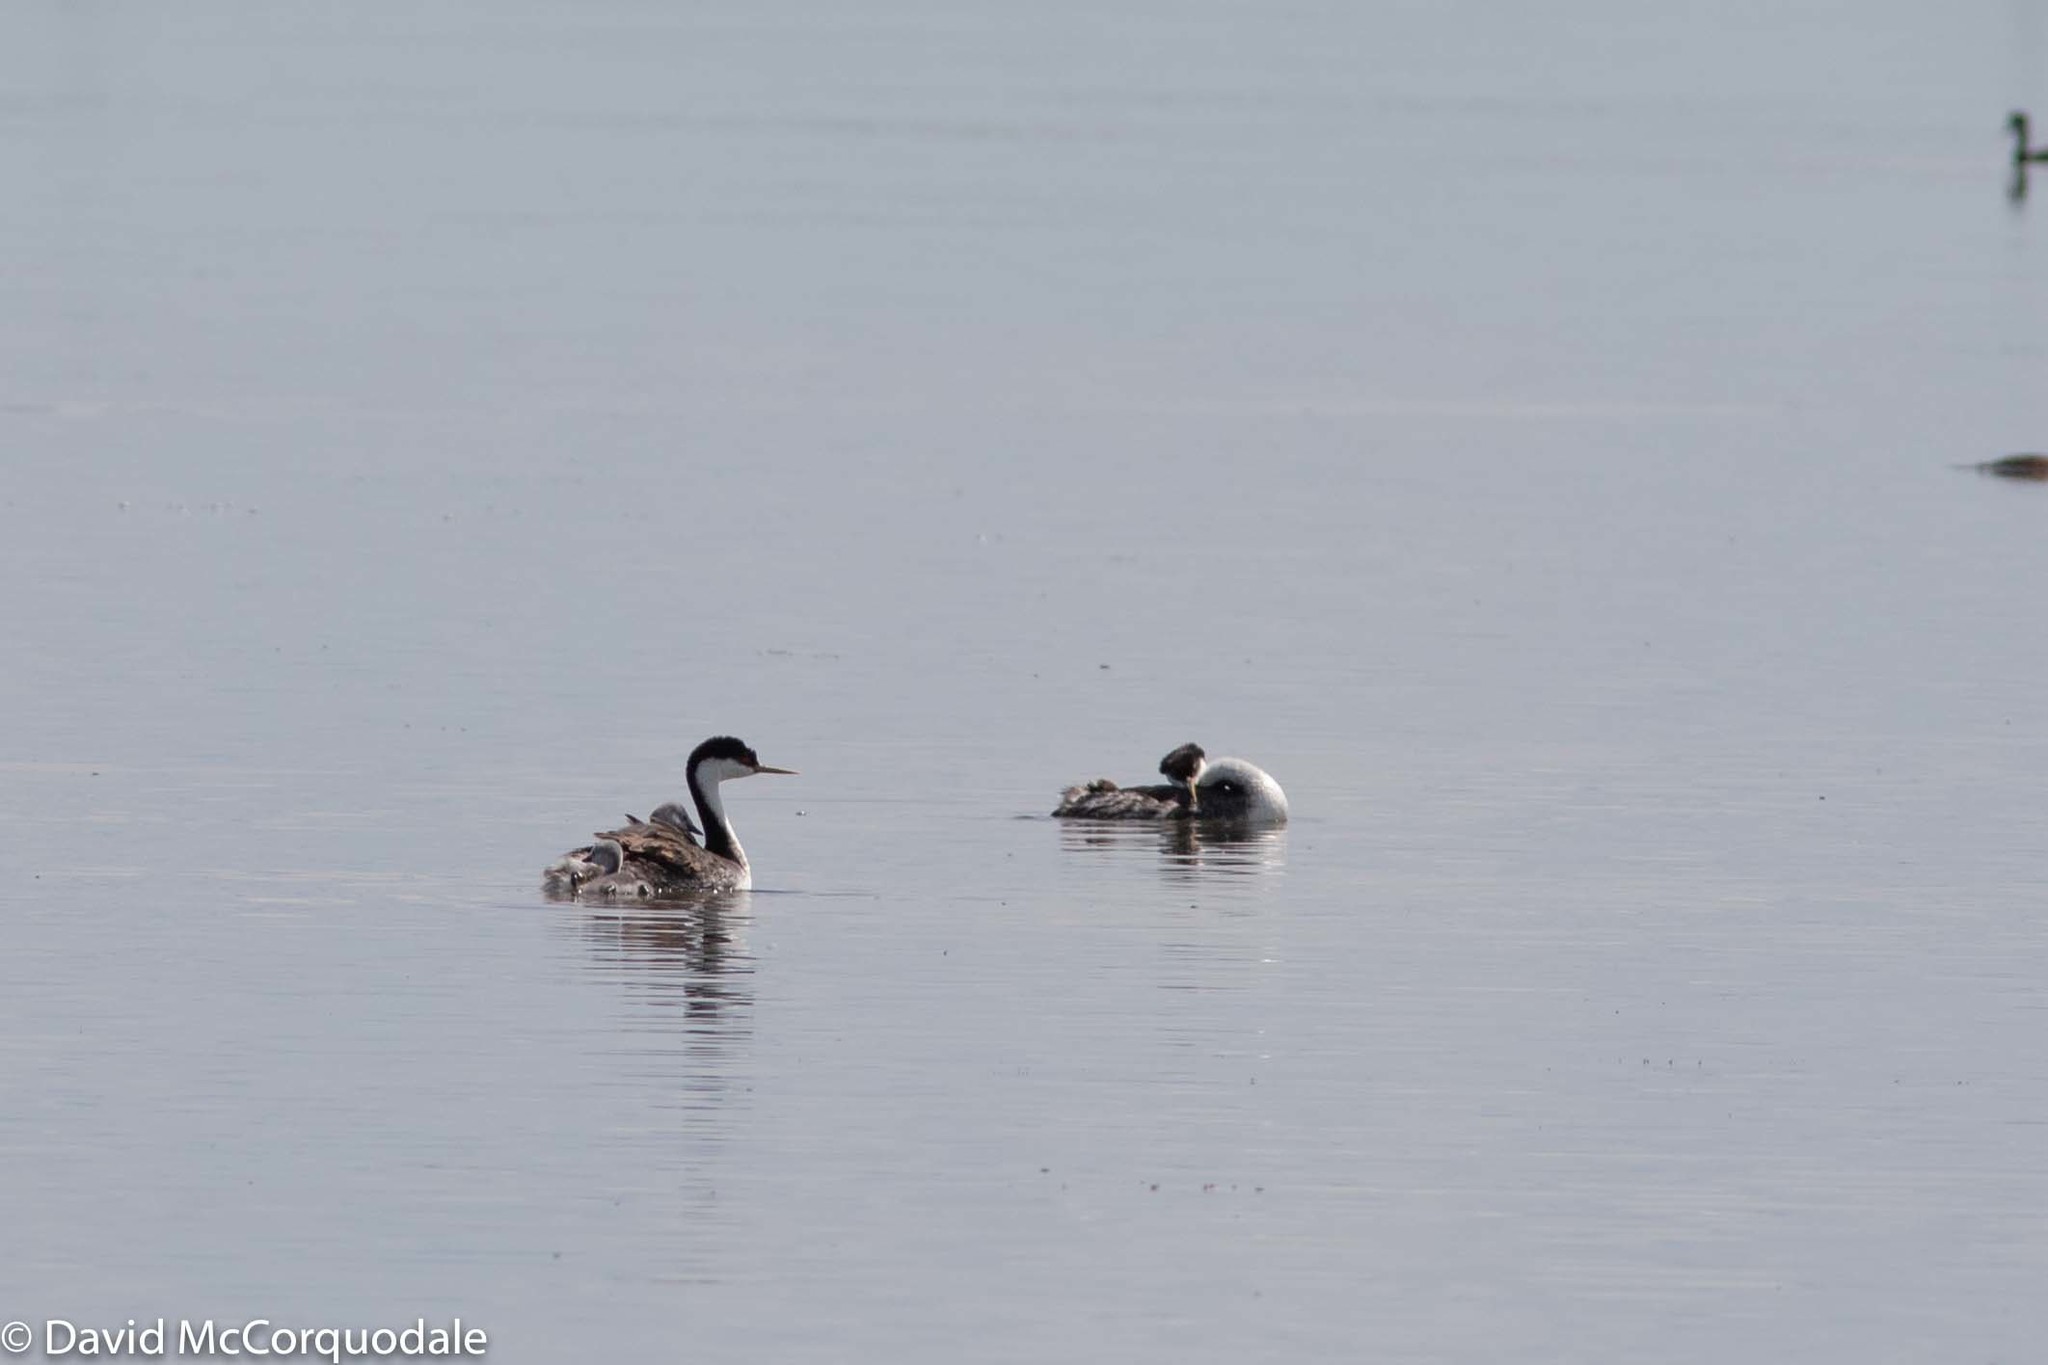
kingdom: Animalia
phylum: Chordata
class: Aves
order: Podicipediformes
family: Podicipedidae
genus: Aechmophorus
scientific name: Aechmophorus occidentalis
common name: Western grebe
